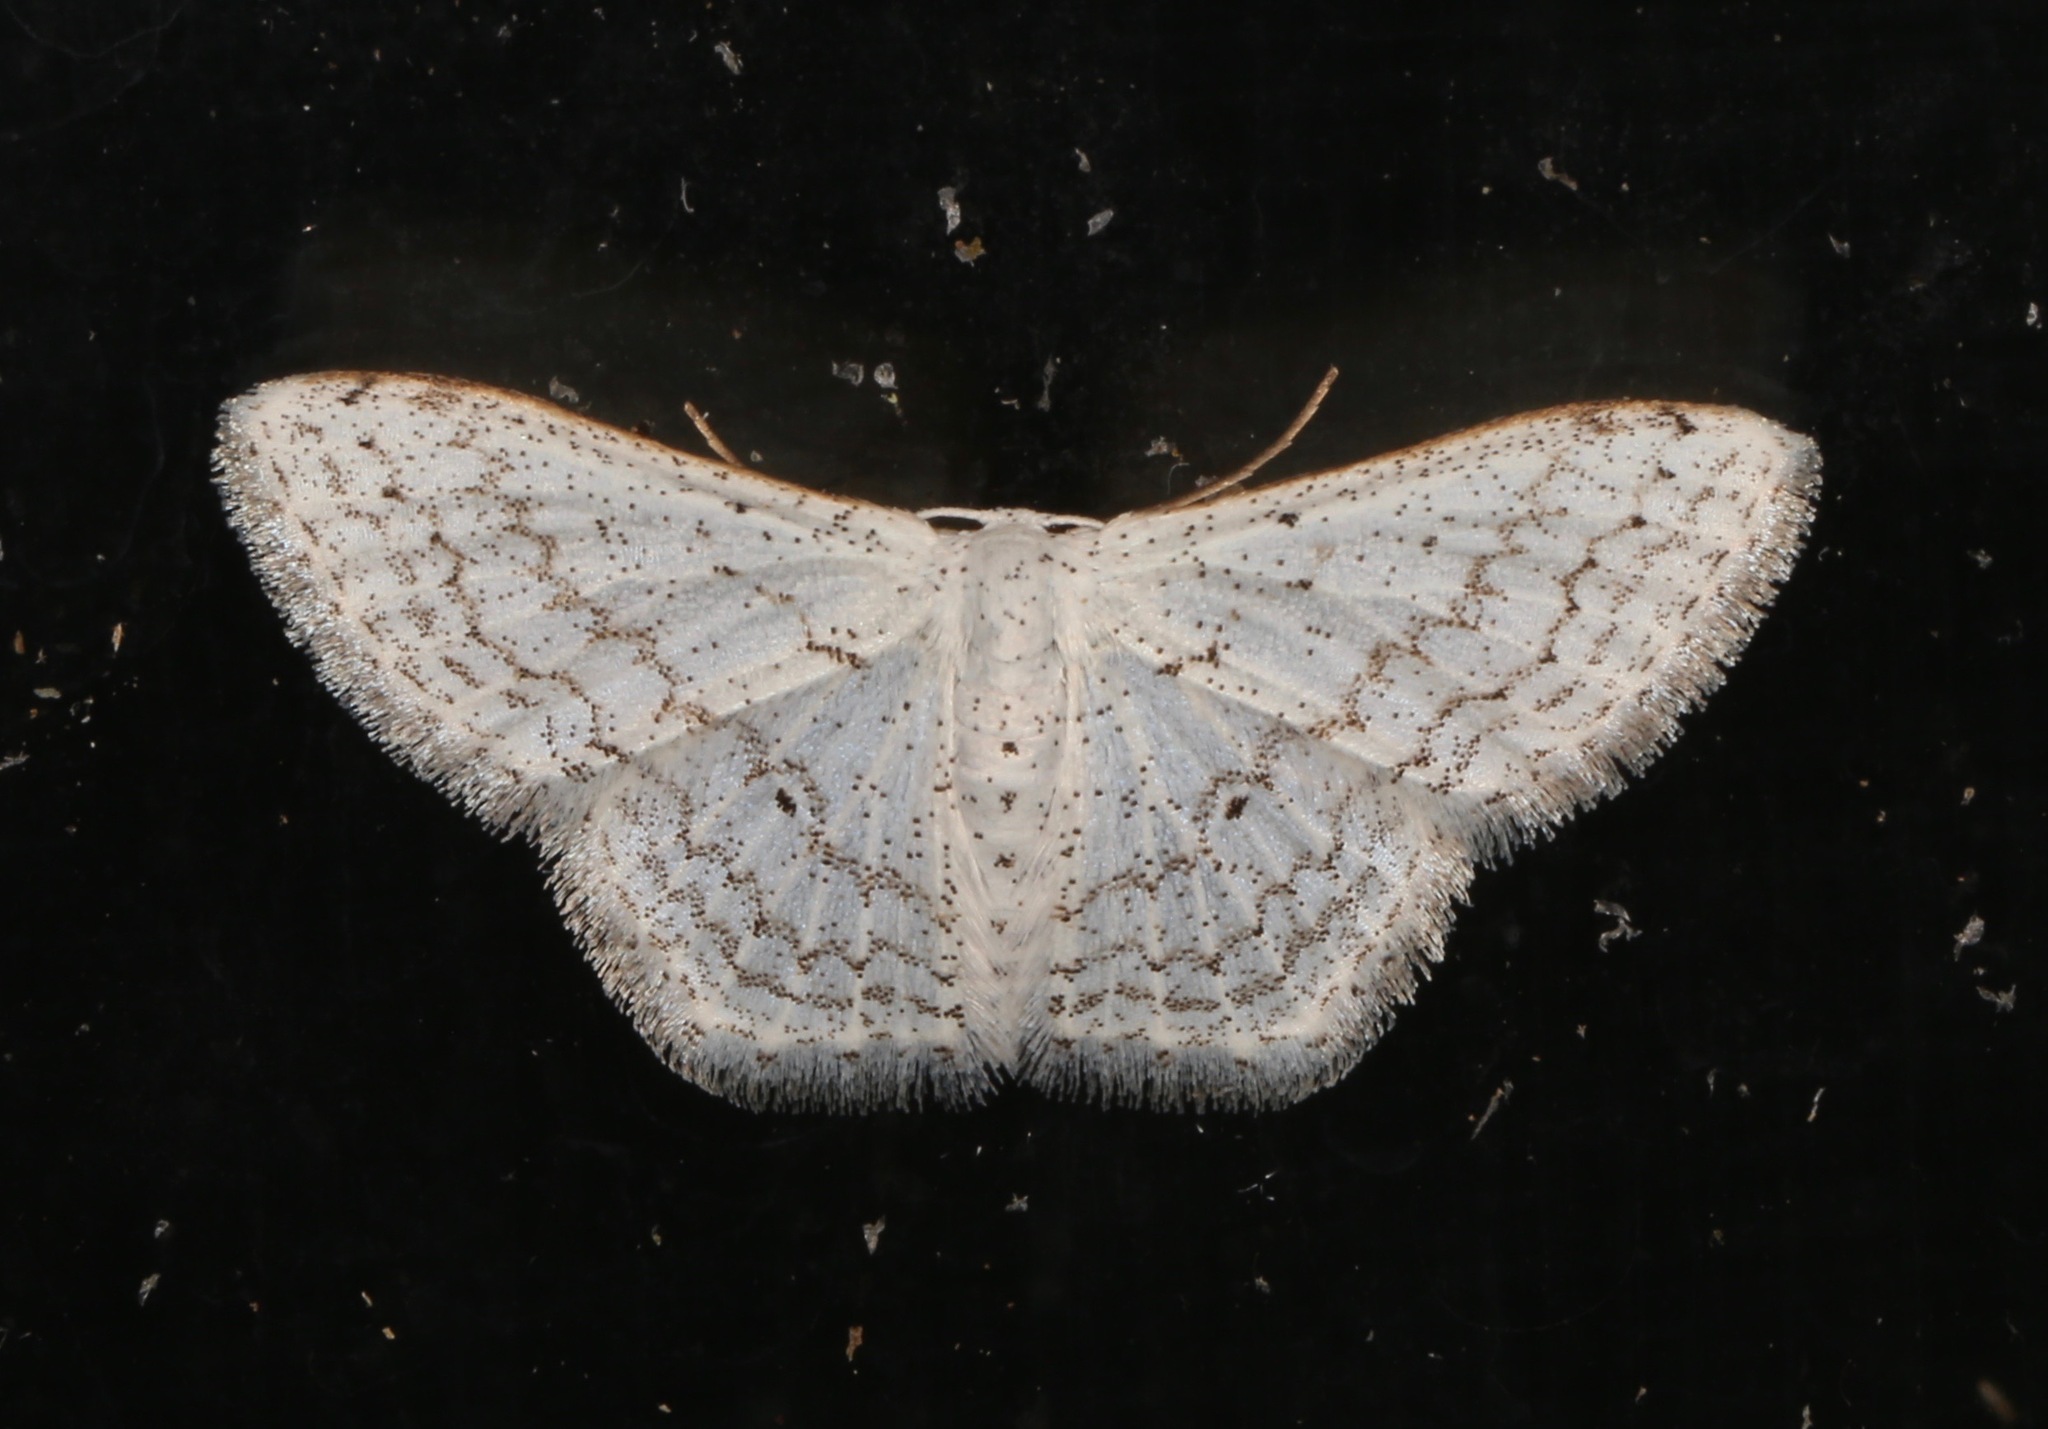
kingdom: Animalia
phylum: Arthropoda
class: Insecta
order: Lepidoptera
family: Geometridae
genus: Idaea
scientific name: Idaea tacturata
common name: Dot-lined wave
